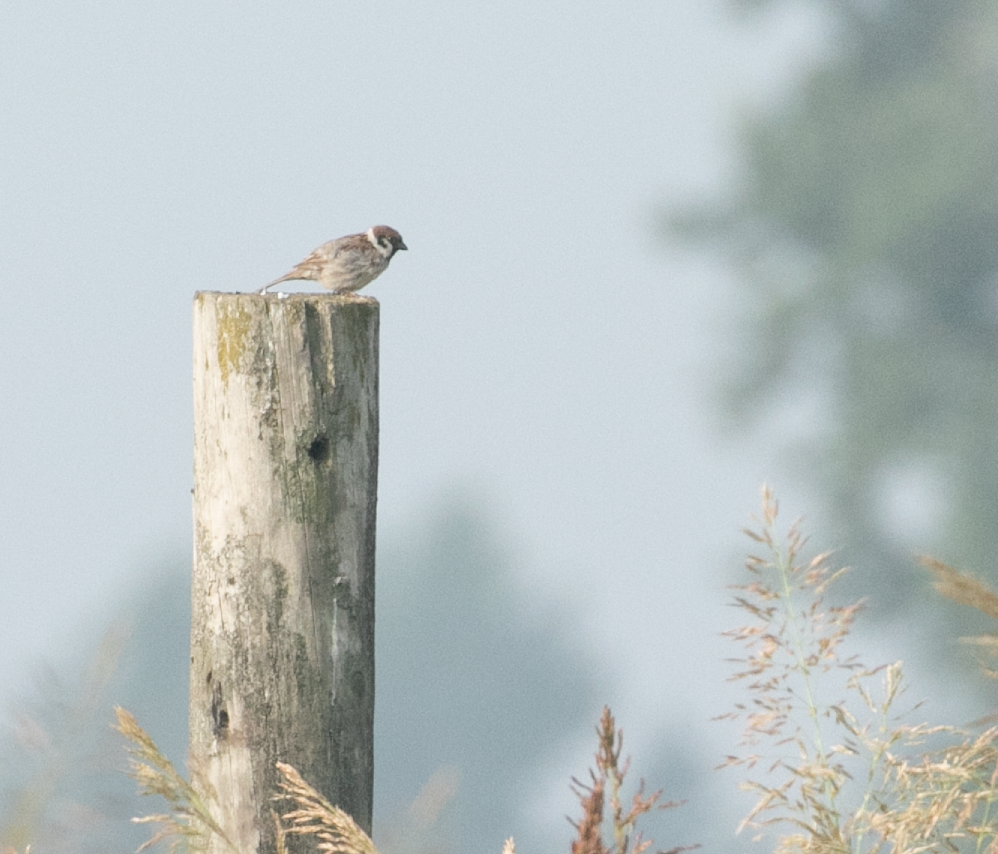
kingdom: Animalia
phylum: Chordata
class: Aves
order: Passeriformes
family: Passeridae
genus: Passer
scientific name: Passer montanus
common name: Eurasian tree sparrow
